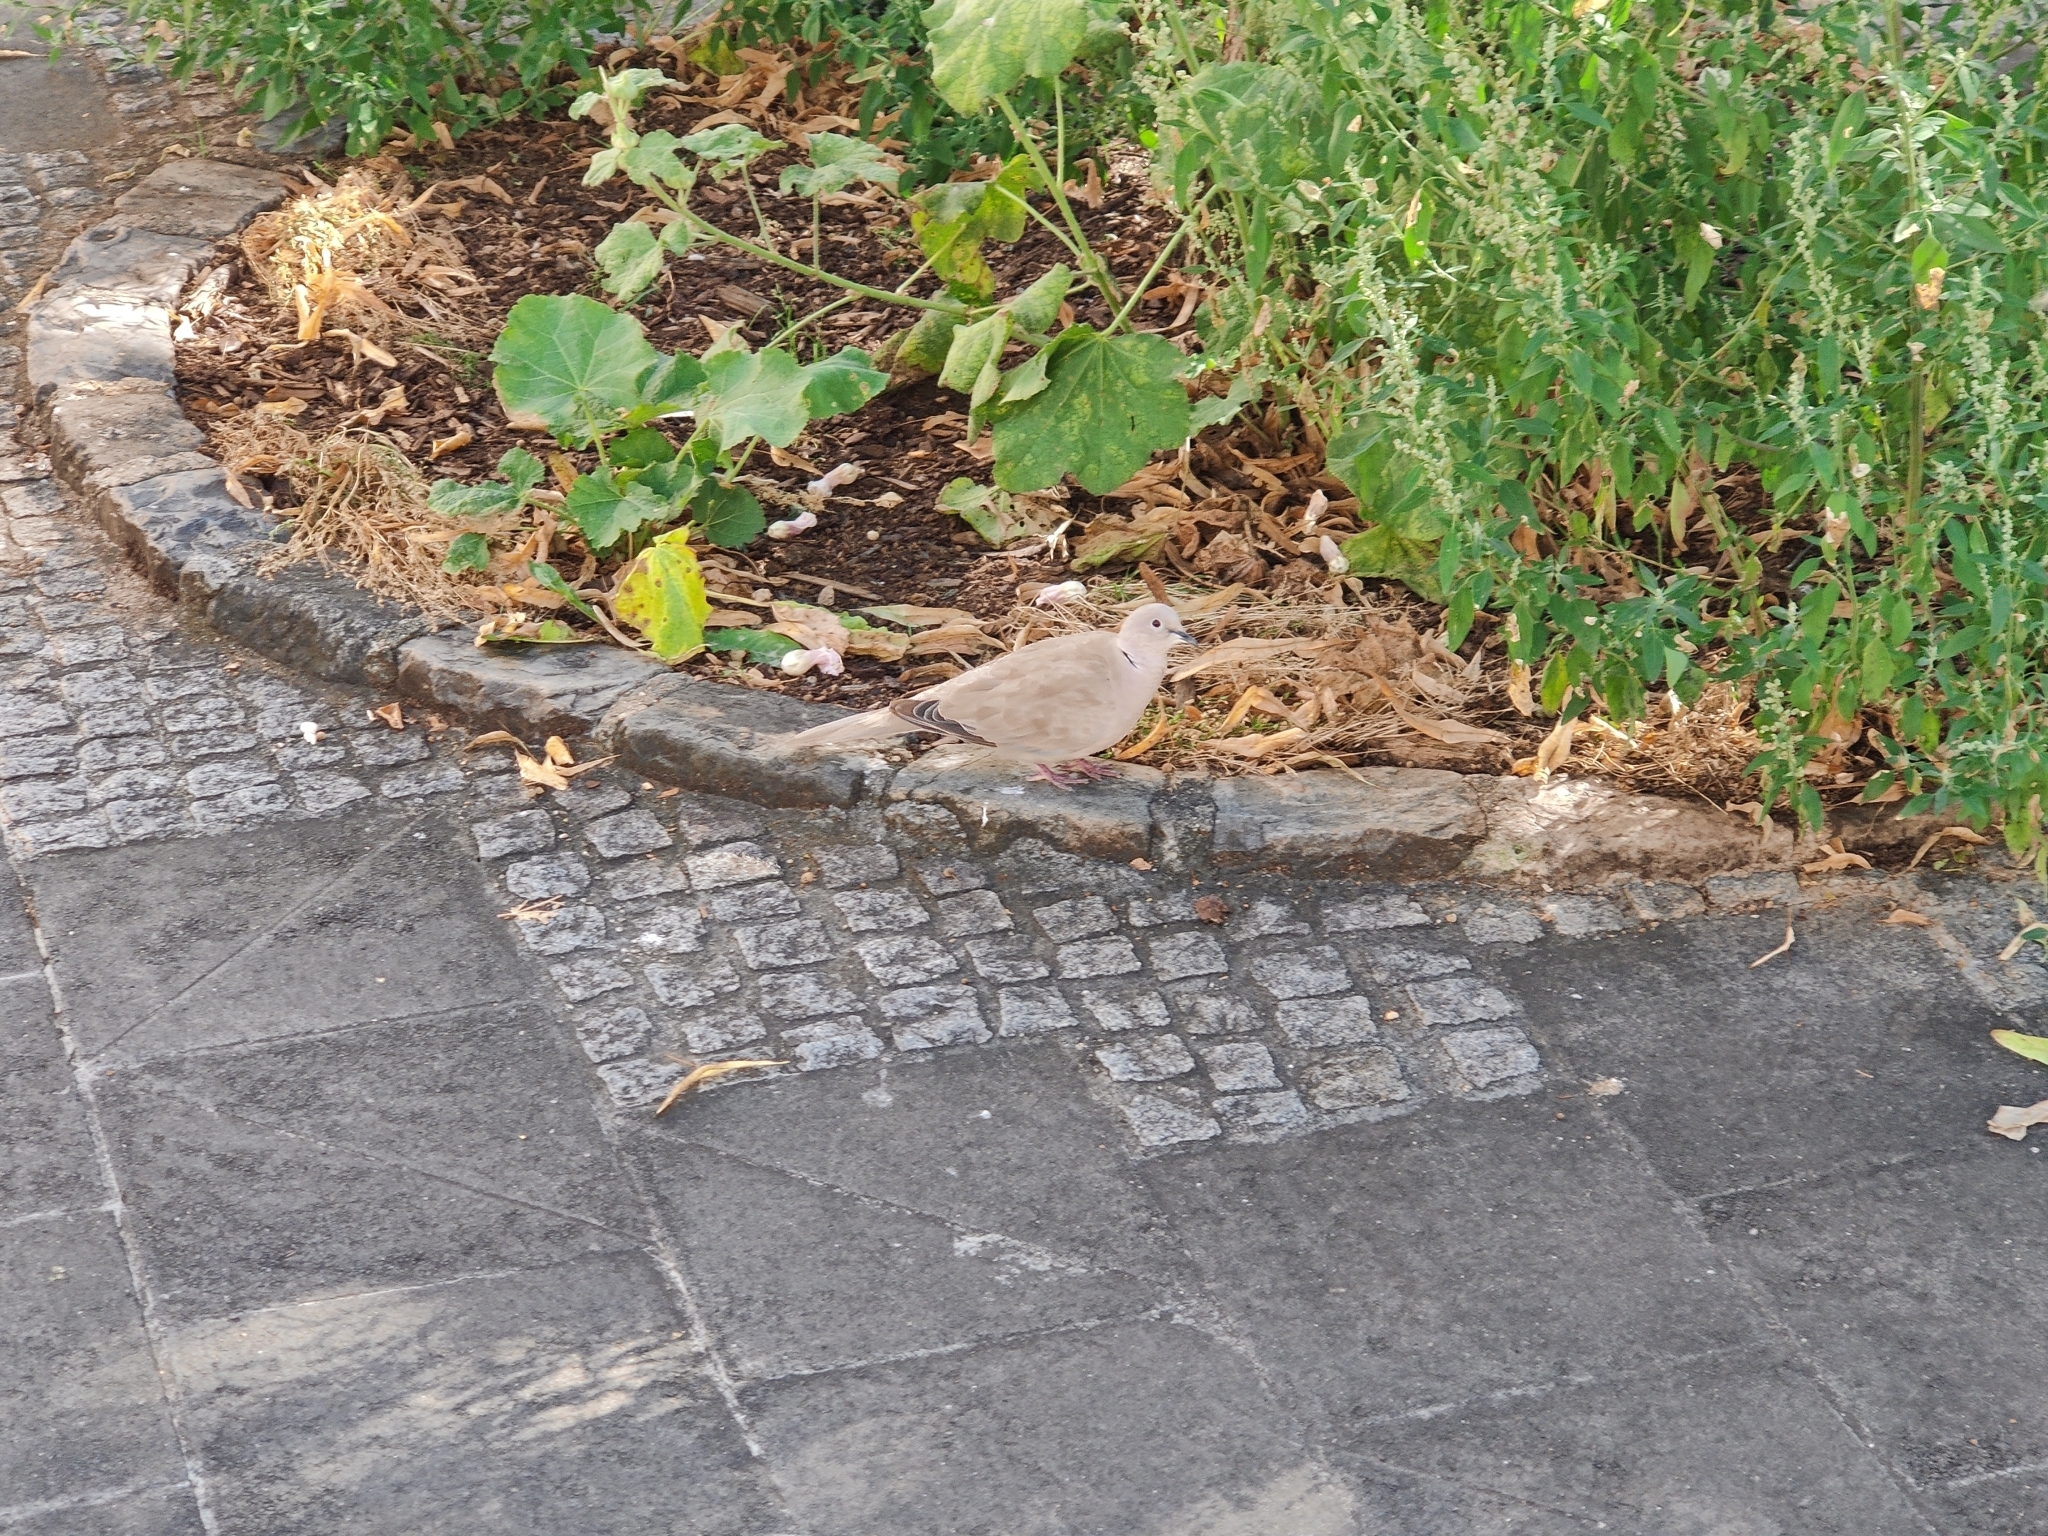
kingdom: Animalia
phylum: Chordata
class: Aves
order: Columbiformes
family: Columbidae
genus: Streptopelia
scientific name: Streptopelia decaocto
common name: Eurasian collared dove
